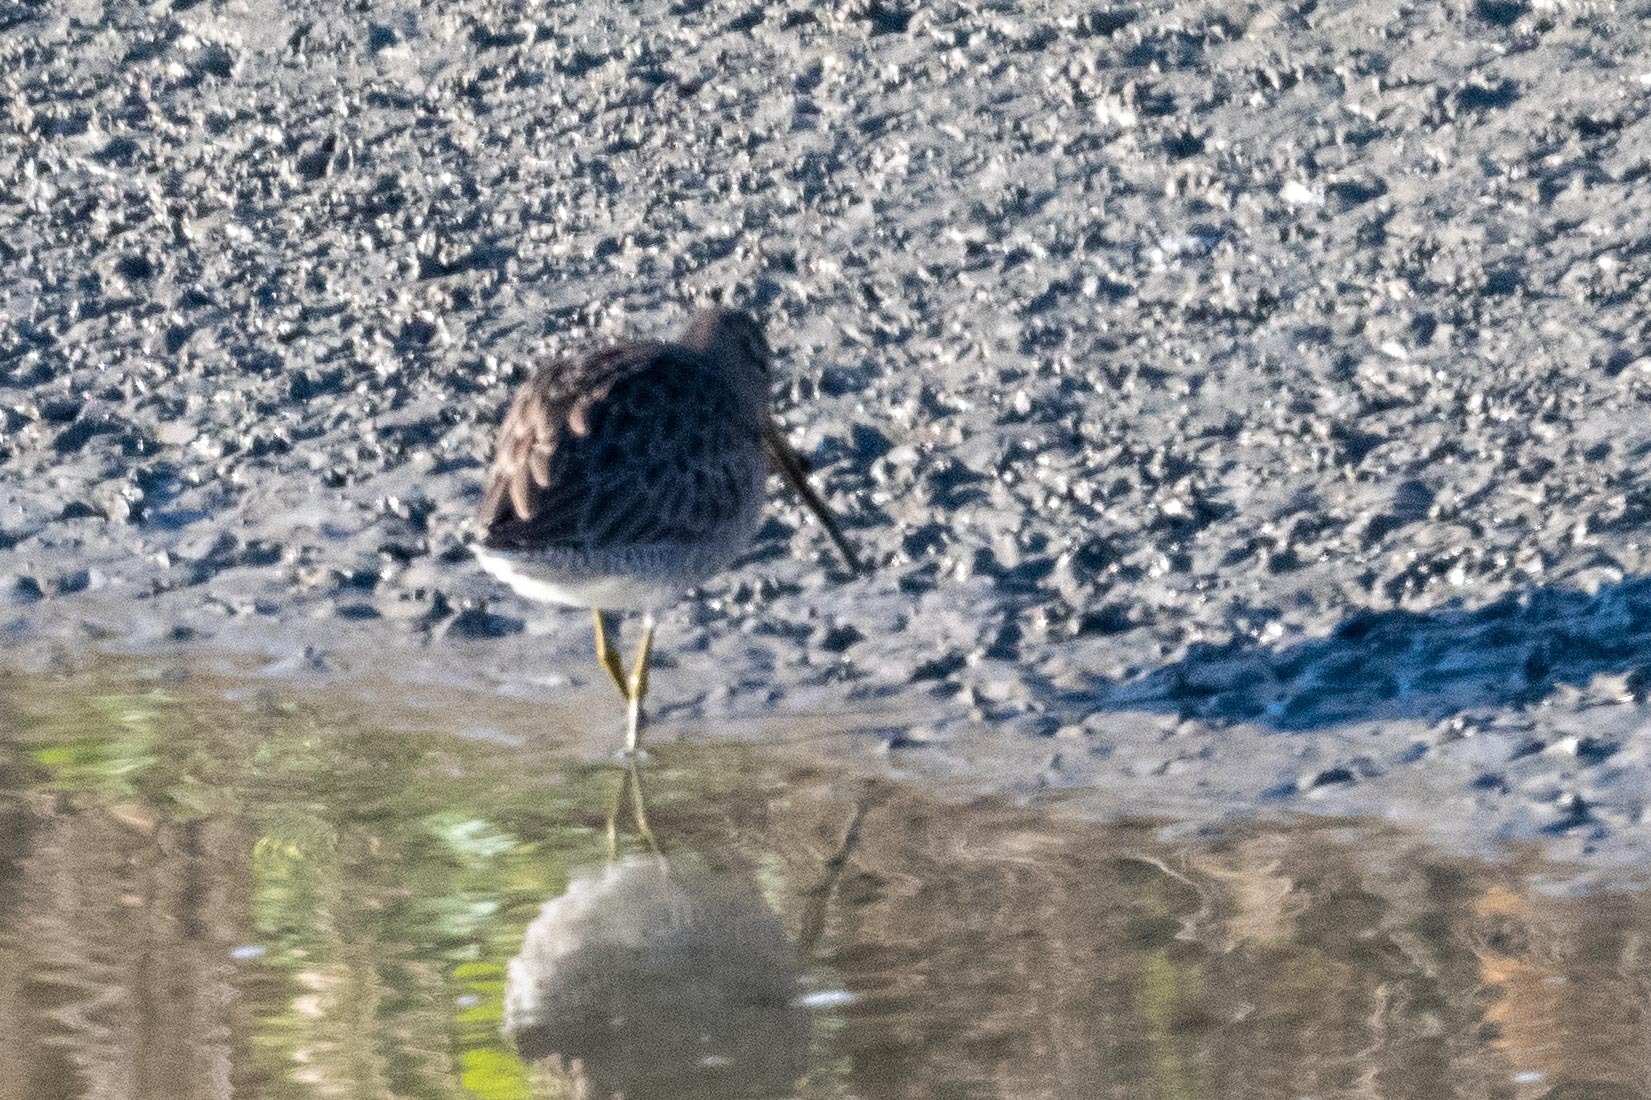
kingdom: Animalia
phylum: Chordata
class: Aves
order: Charadriiformes
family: Scolopacidae
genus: Limnodromus
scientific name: Limnodromus scolopaceus
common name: Long-billed dowitcher
